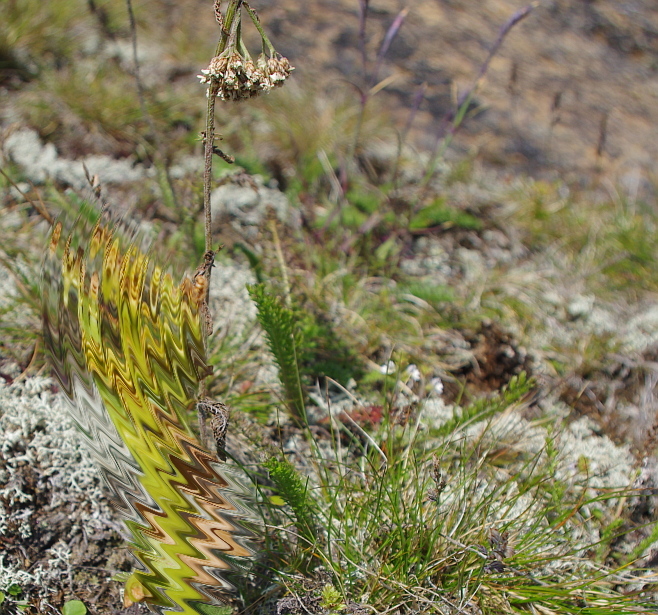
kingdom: Plantae
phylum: Tracheophyta
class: Magnoliopsida
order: Asterales
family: Asteraceae
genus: Achillea
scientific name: Achillea millefolium
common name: Yarrow
